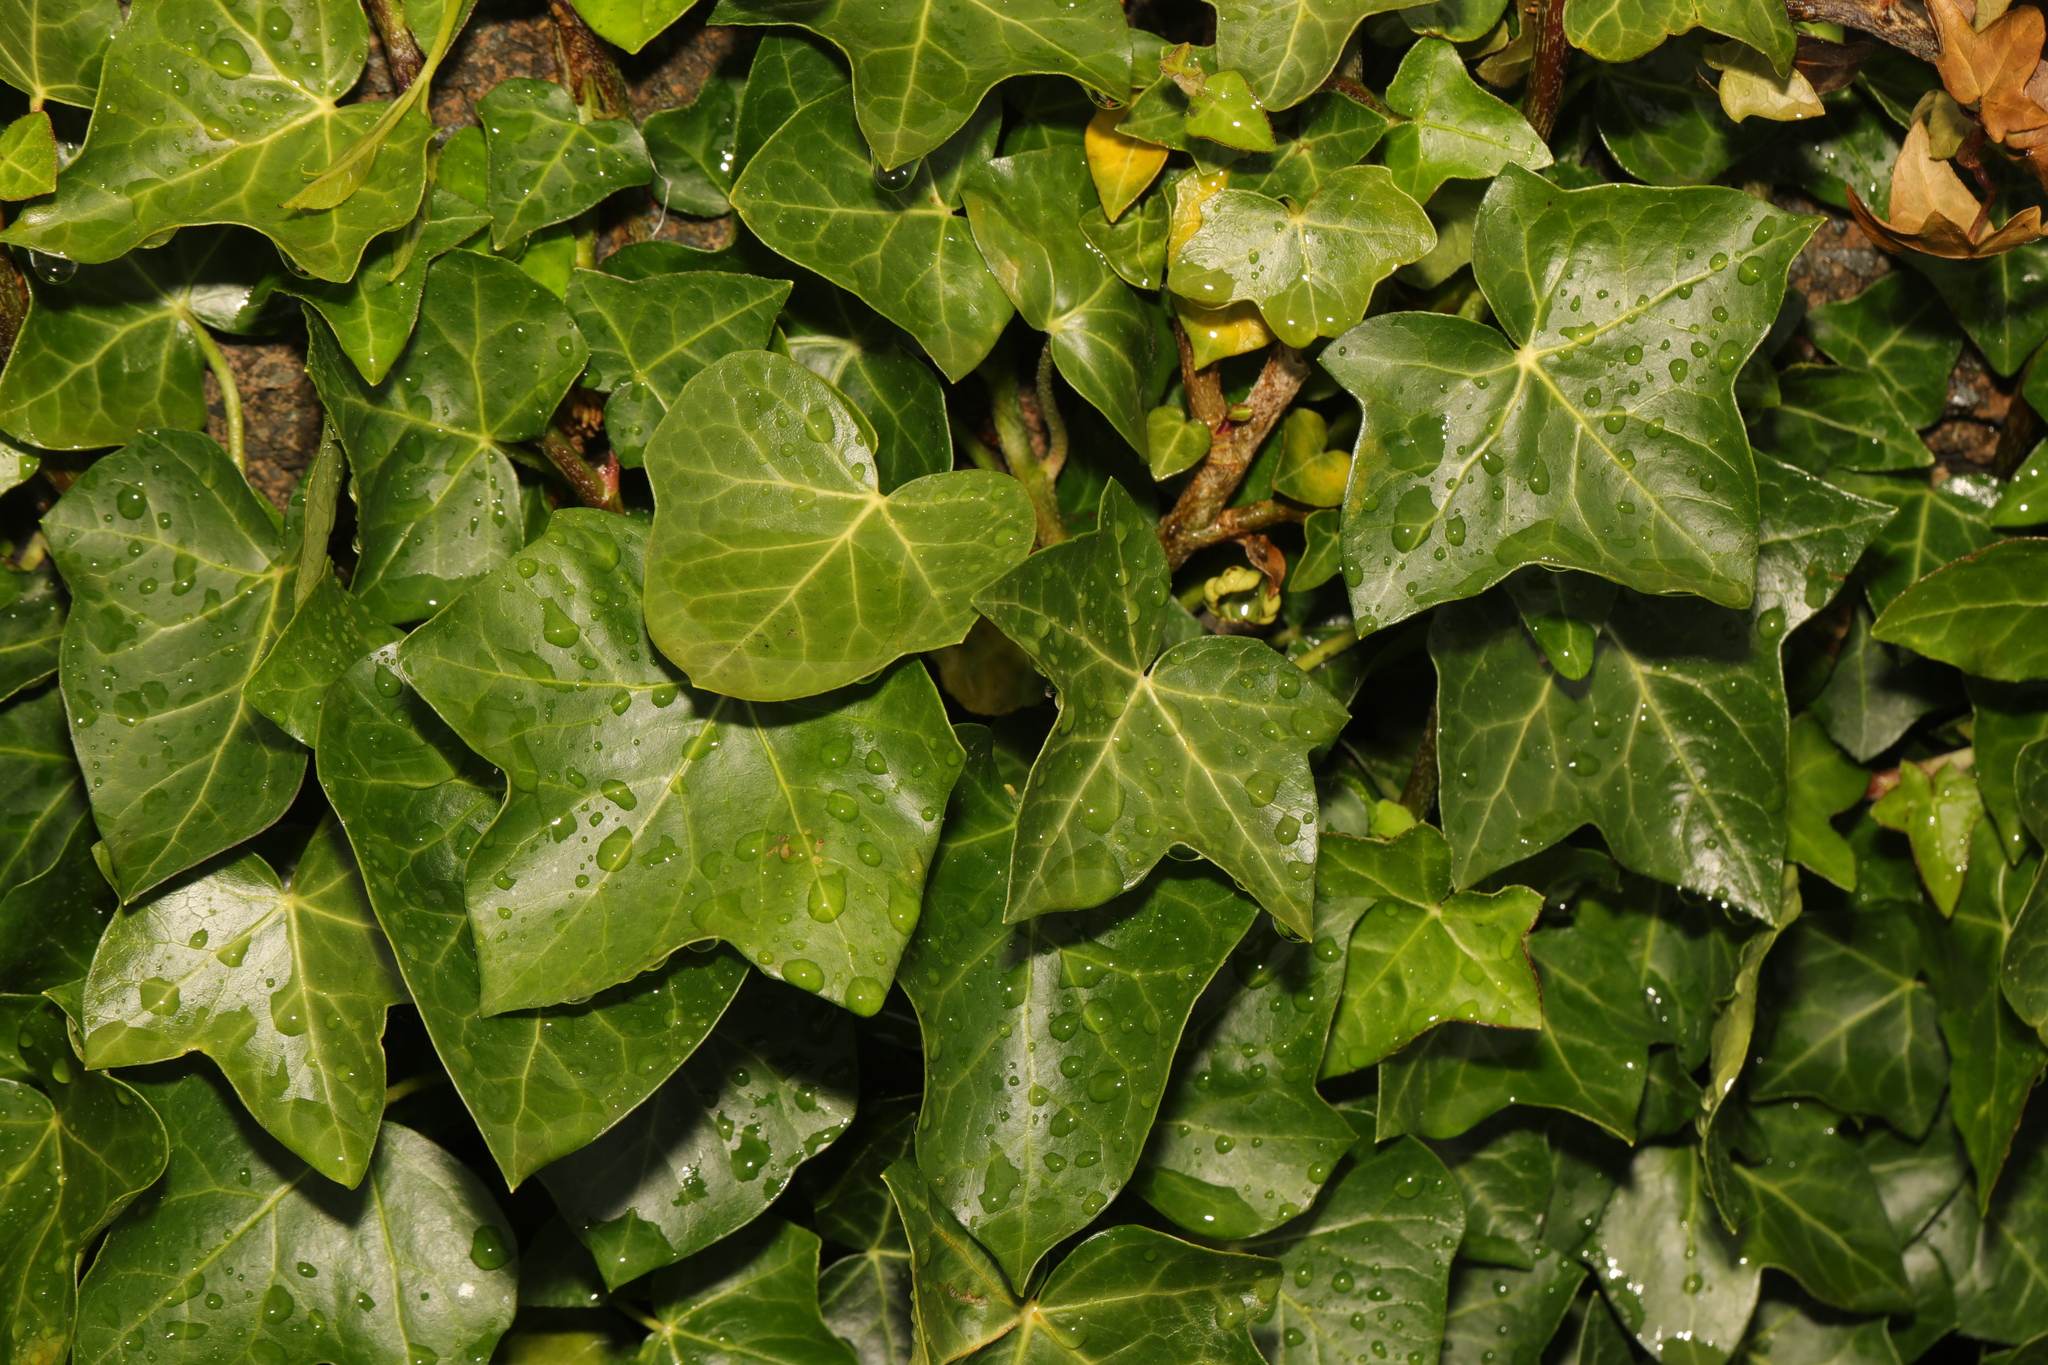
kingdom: Plantae
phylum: Tracheophyta
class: Magnoliopsida
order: Apiales
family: Araliaceae
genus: Hedera
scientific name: Hedera helix
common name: Ivy
